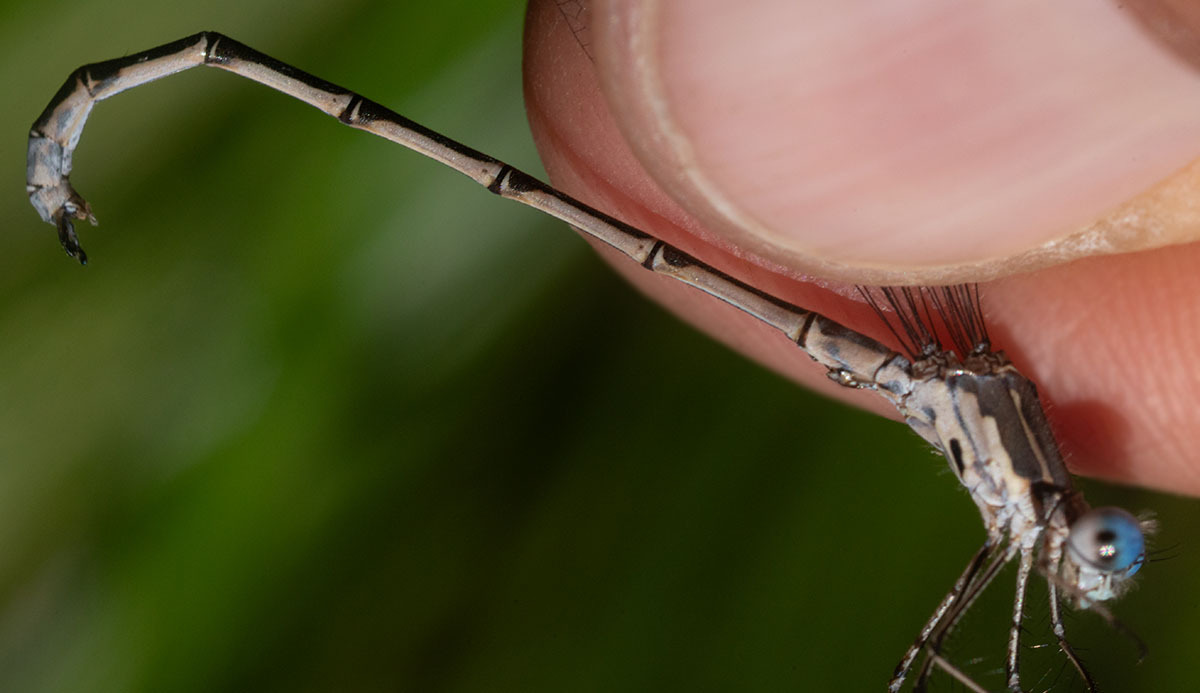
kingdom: Animalia
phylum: Arthropoda
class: Insecta
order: Odonata
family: Lestidae
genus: Lestes
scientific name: Lestes congener
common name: Spotted spreadwing
